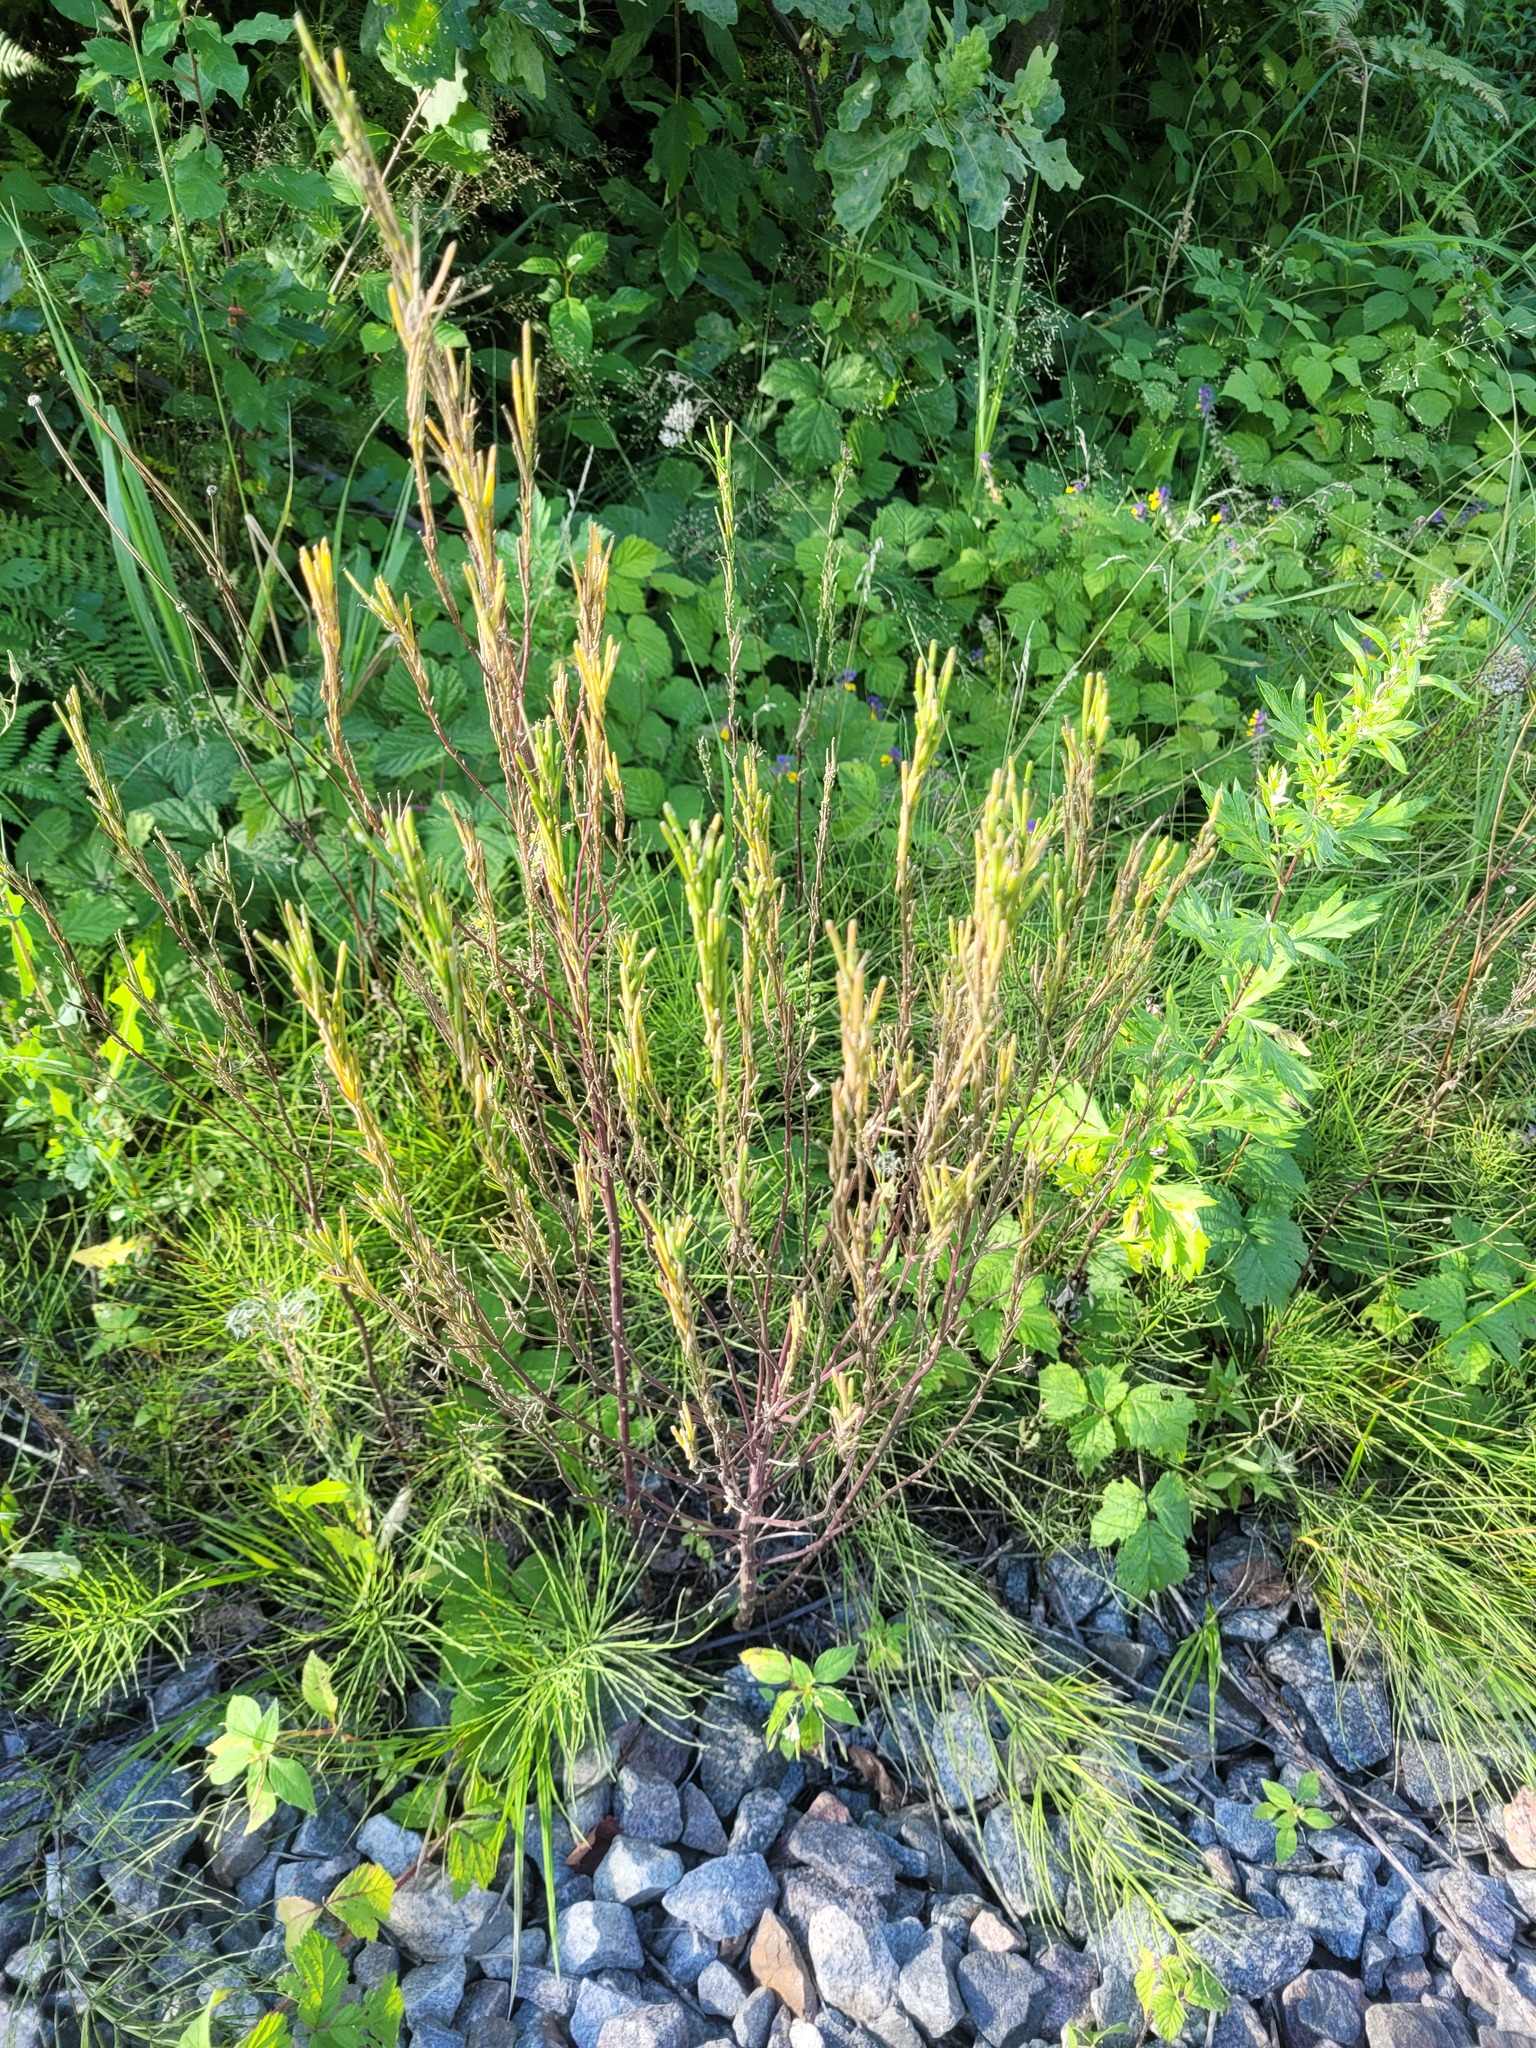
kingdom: Plantae
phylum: Tracheophyta
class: Magnoliopsida
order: Brassicales
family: Brassicaceae
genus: Erysimum
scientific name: Erysimum hieraciifolium
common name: European wallflower
